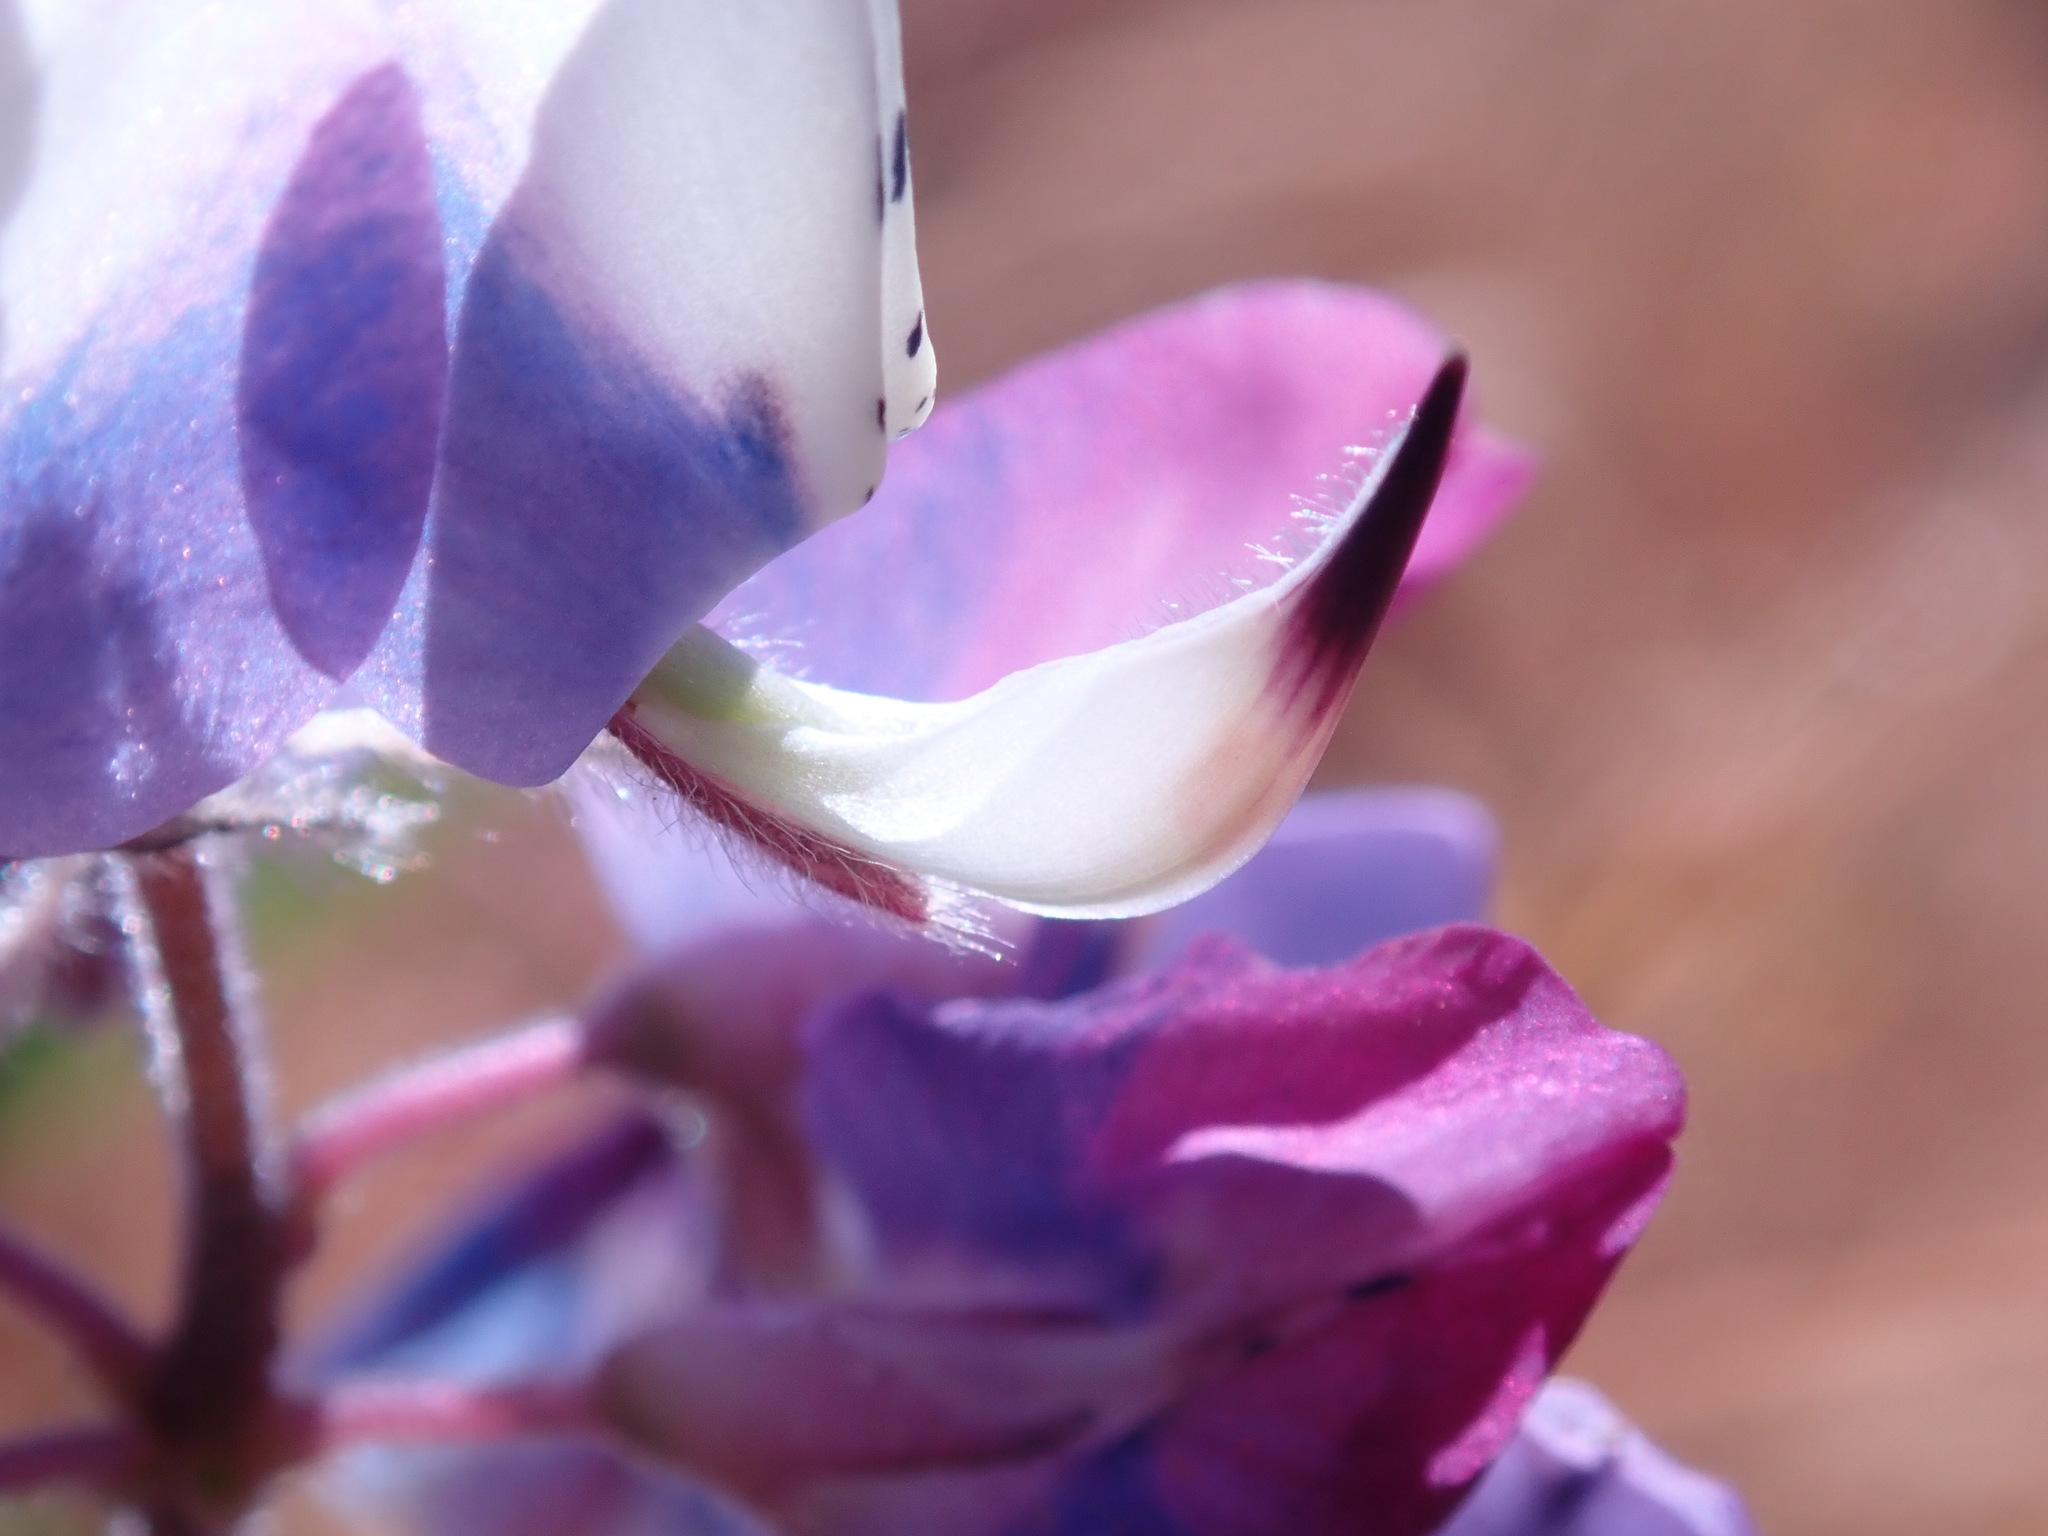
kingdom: Plantae
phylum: Tracheophyta
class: Magnoliopsida
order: Fabales
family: Fabaceae
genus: Lupinus
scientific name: Lupinus nanus
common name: Orean blue lupin
